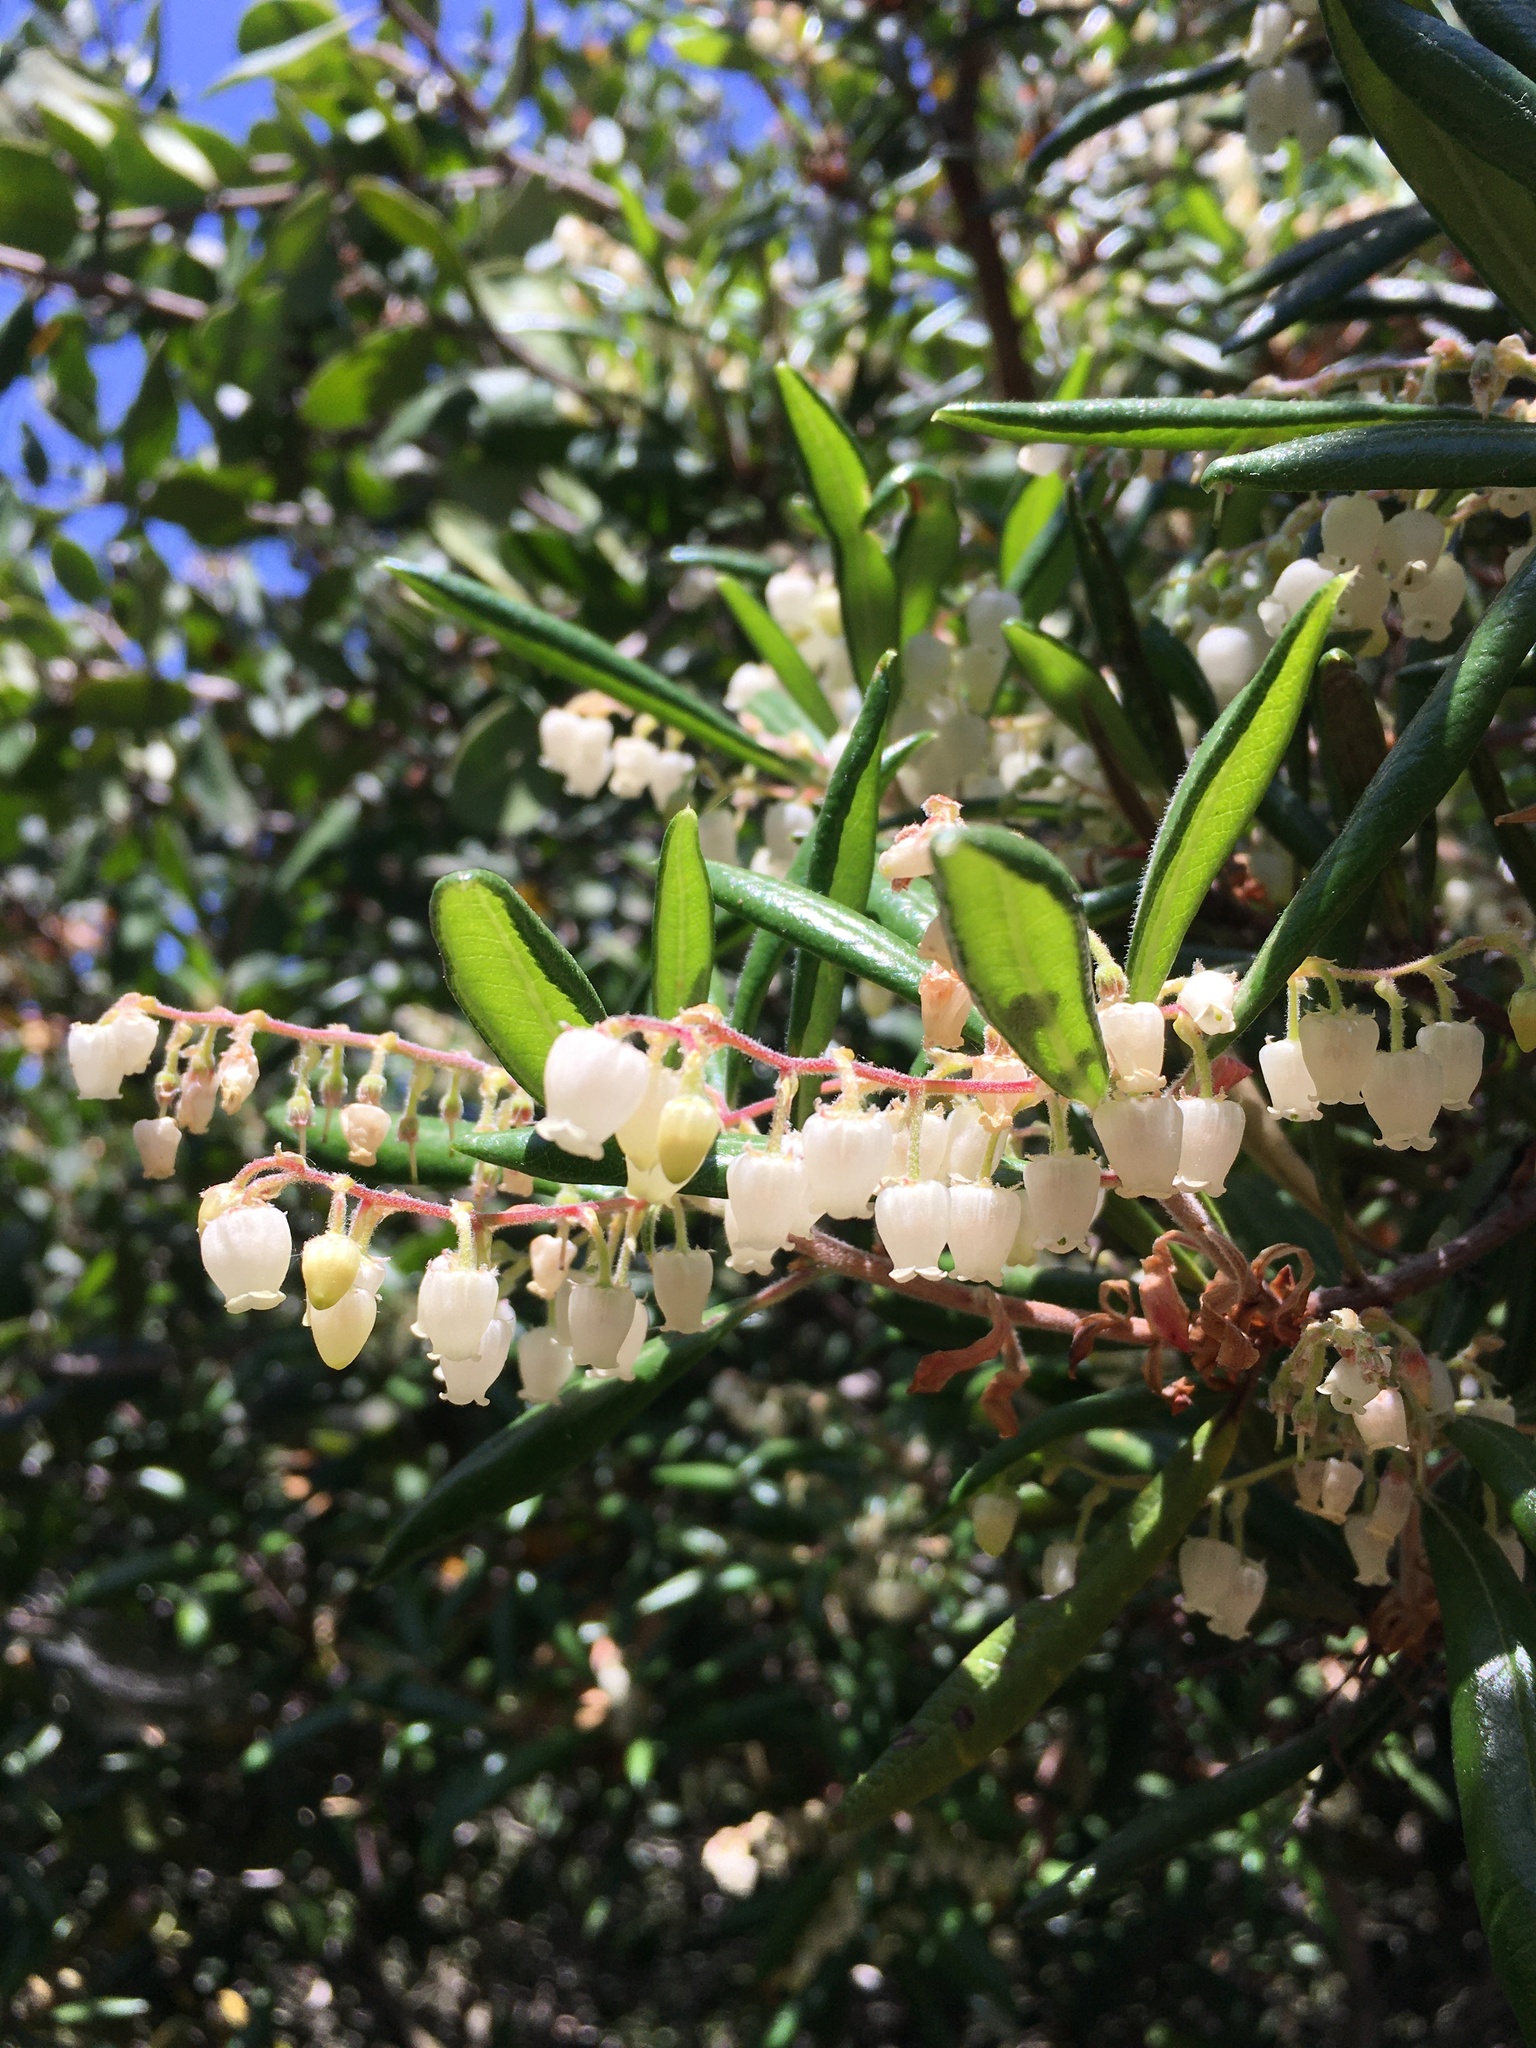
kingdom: Plantae
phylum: Tracheophyta
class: Magnoliopsida
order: Ericales
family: Ericaceae
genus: Comarostaphylis
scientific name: Comarostaphylis diversifolia
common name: Summer-holly
